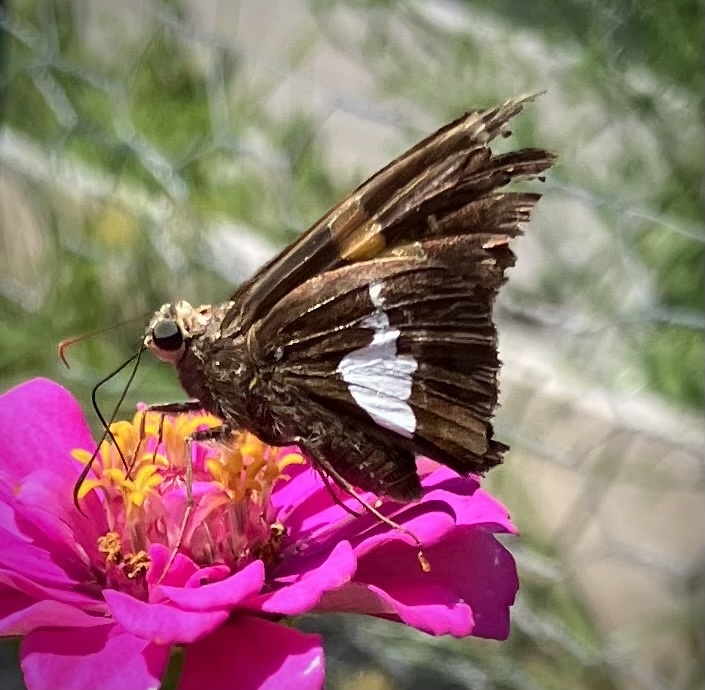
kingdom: Animalia
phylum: Arthropoda
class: Insecta
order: Lepidoptera
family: Hesperiidae
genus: Epargyreus
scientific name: Epargyreus clarus
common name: Silver-spotted skipper
